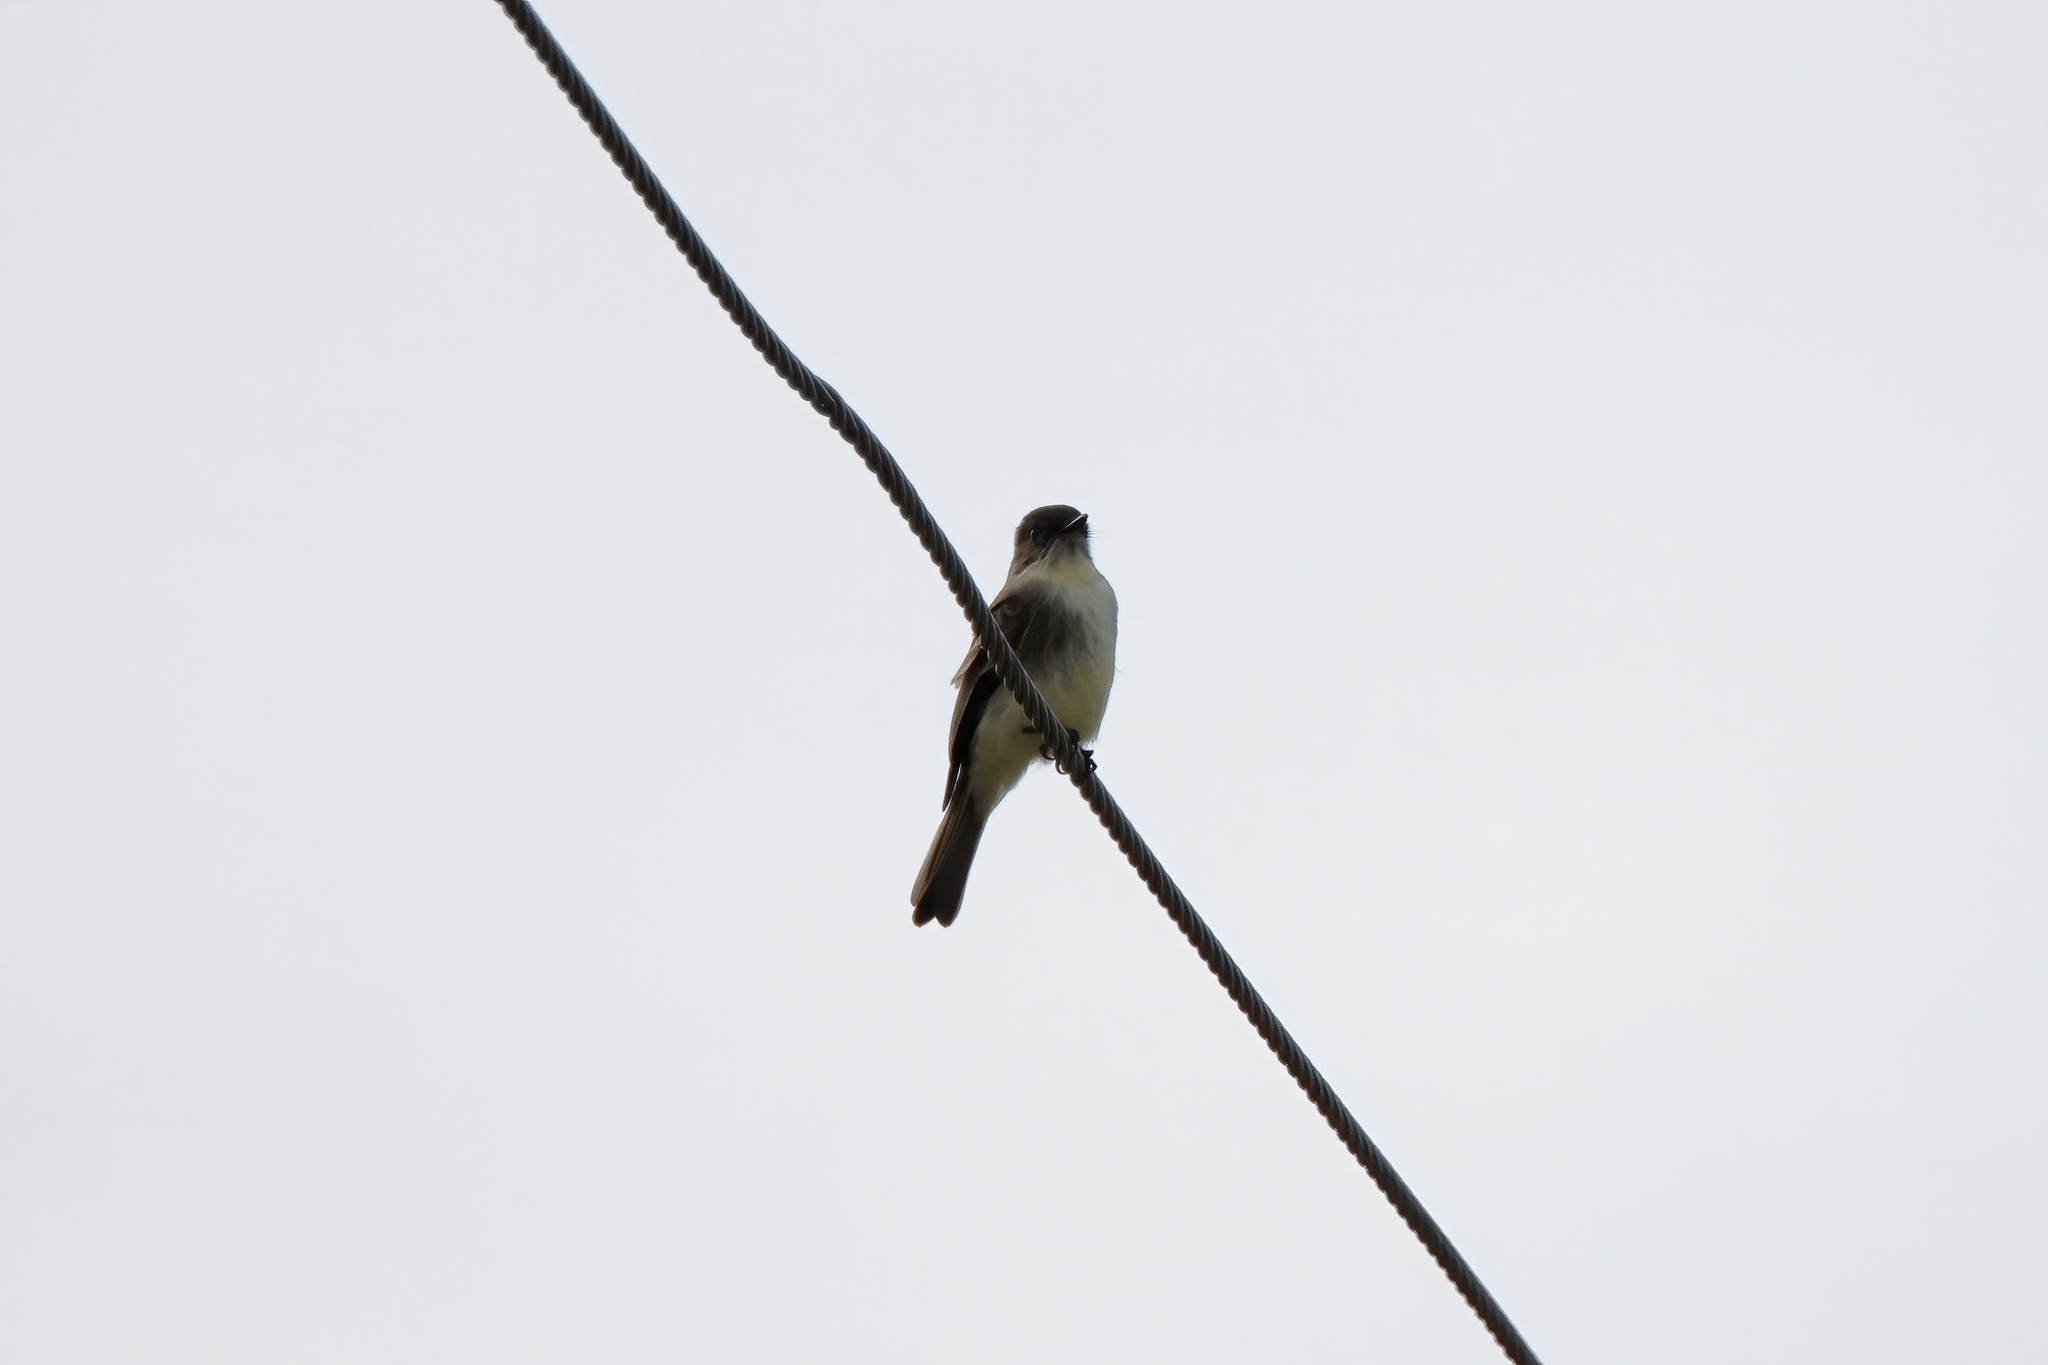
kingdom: Animalia
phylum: Chordata
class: Aves
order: Passeriformes
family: Tyrannidae
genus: Sayornis
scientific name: Sayornis phoebe
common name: Eastern phoebe
